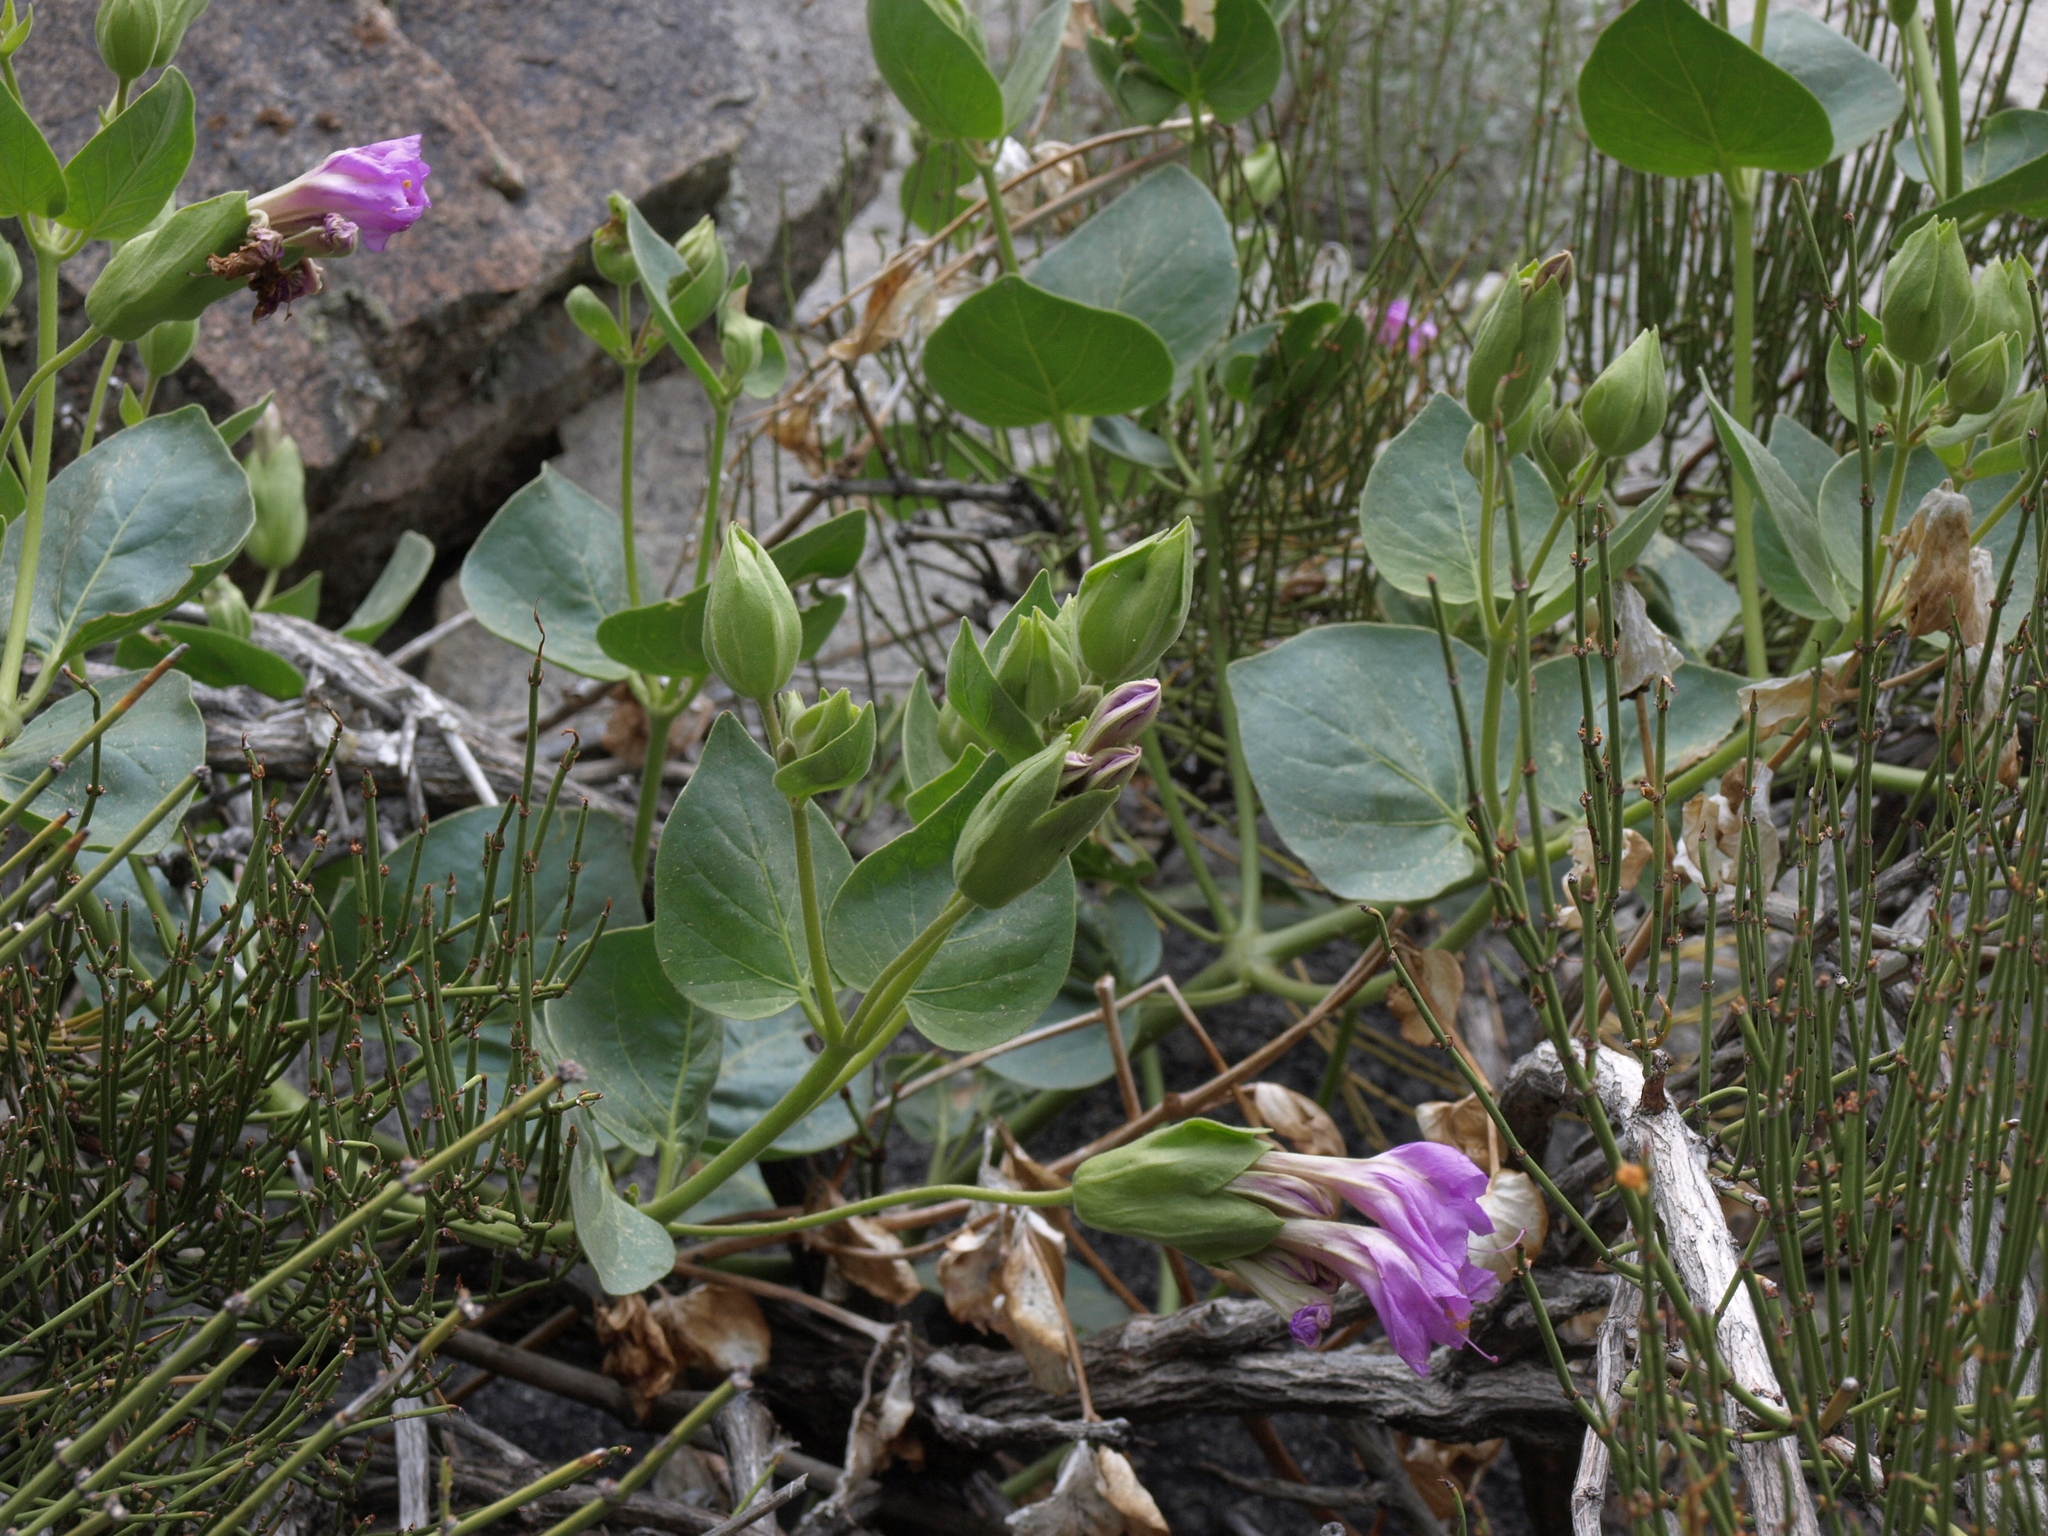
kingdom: Plantae
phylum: Tracheophyta
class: Magnoliopsida
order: Caryophyllales
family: Nyctaginaceae
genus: Mirabilis
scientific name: Mirabilis multiflora
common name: Froebel's four-o'clock
